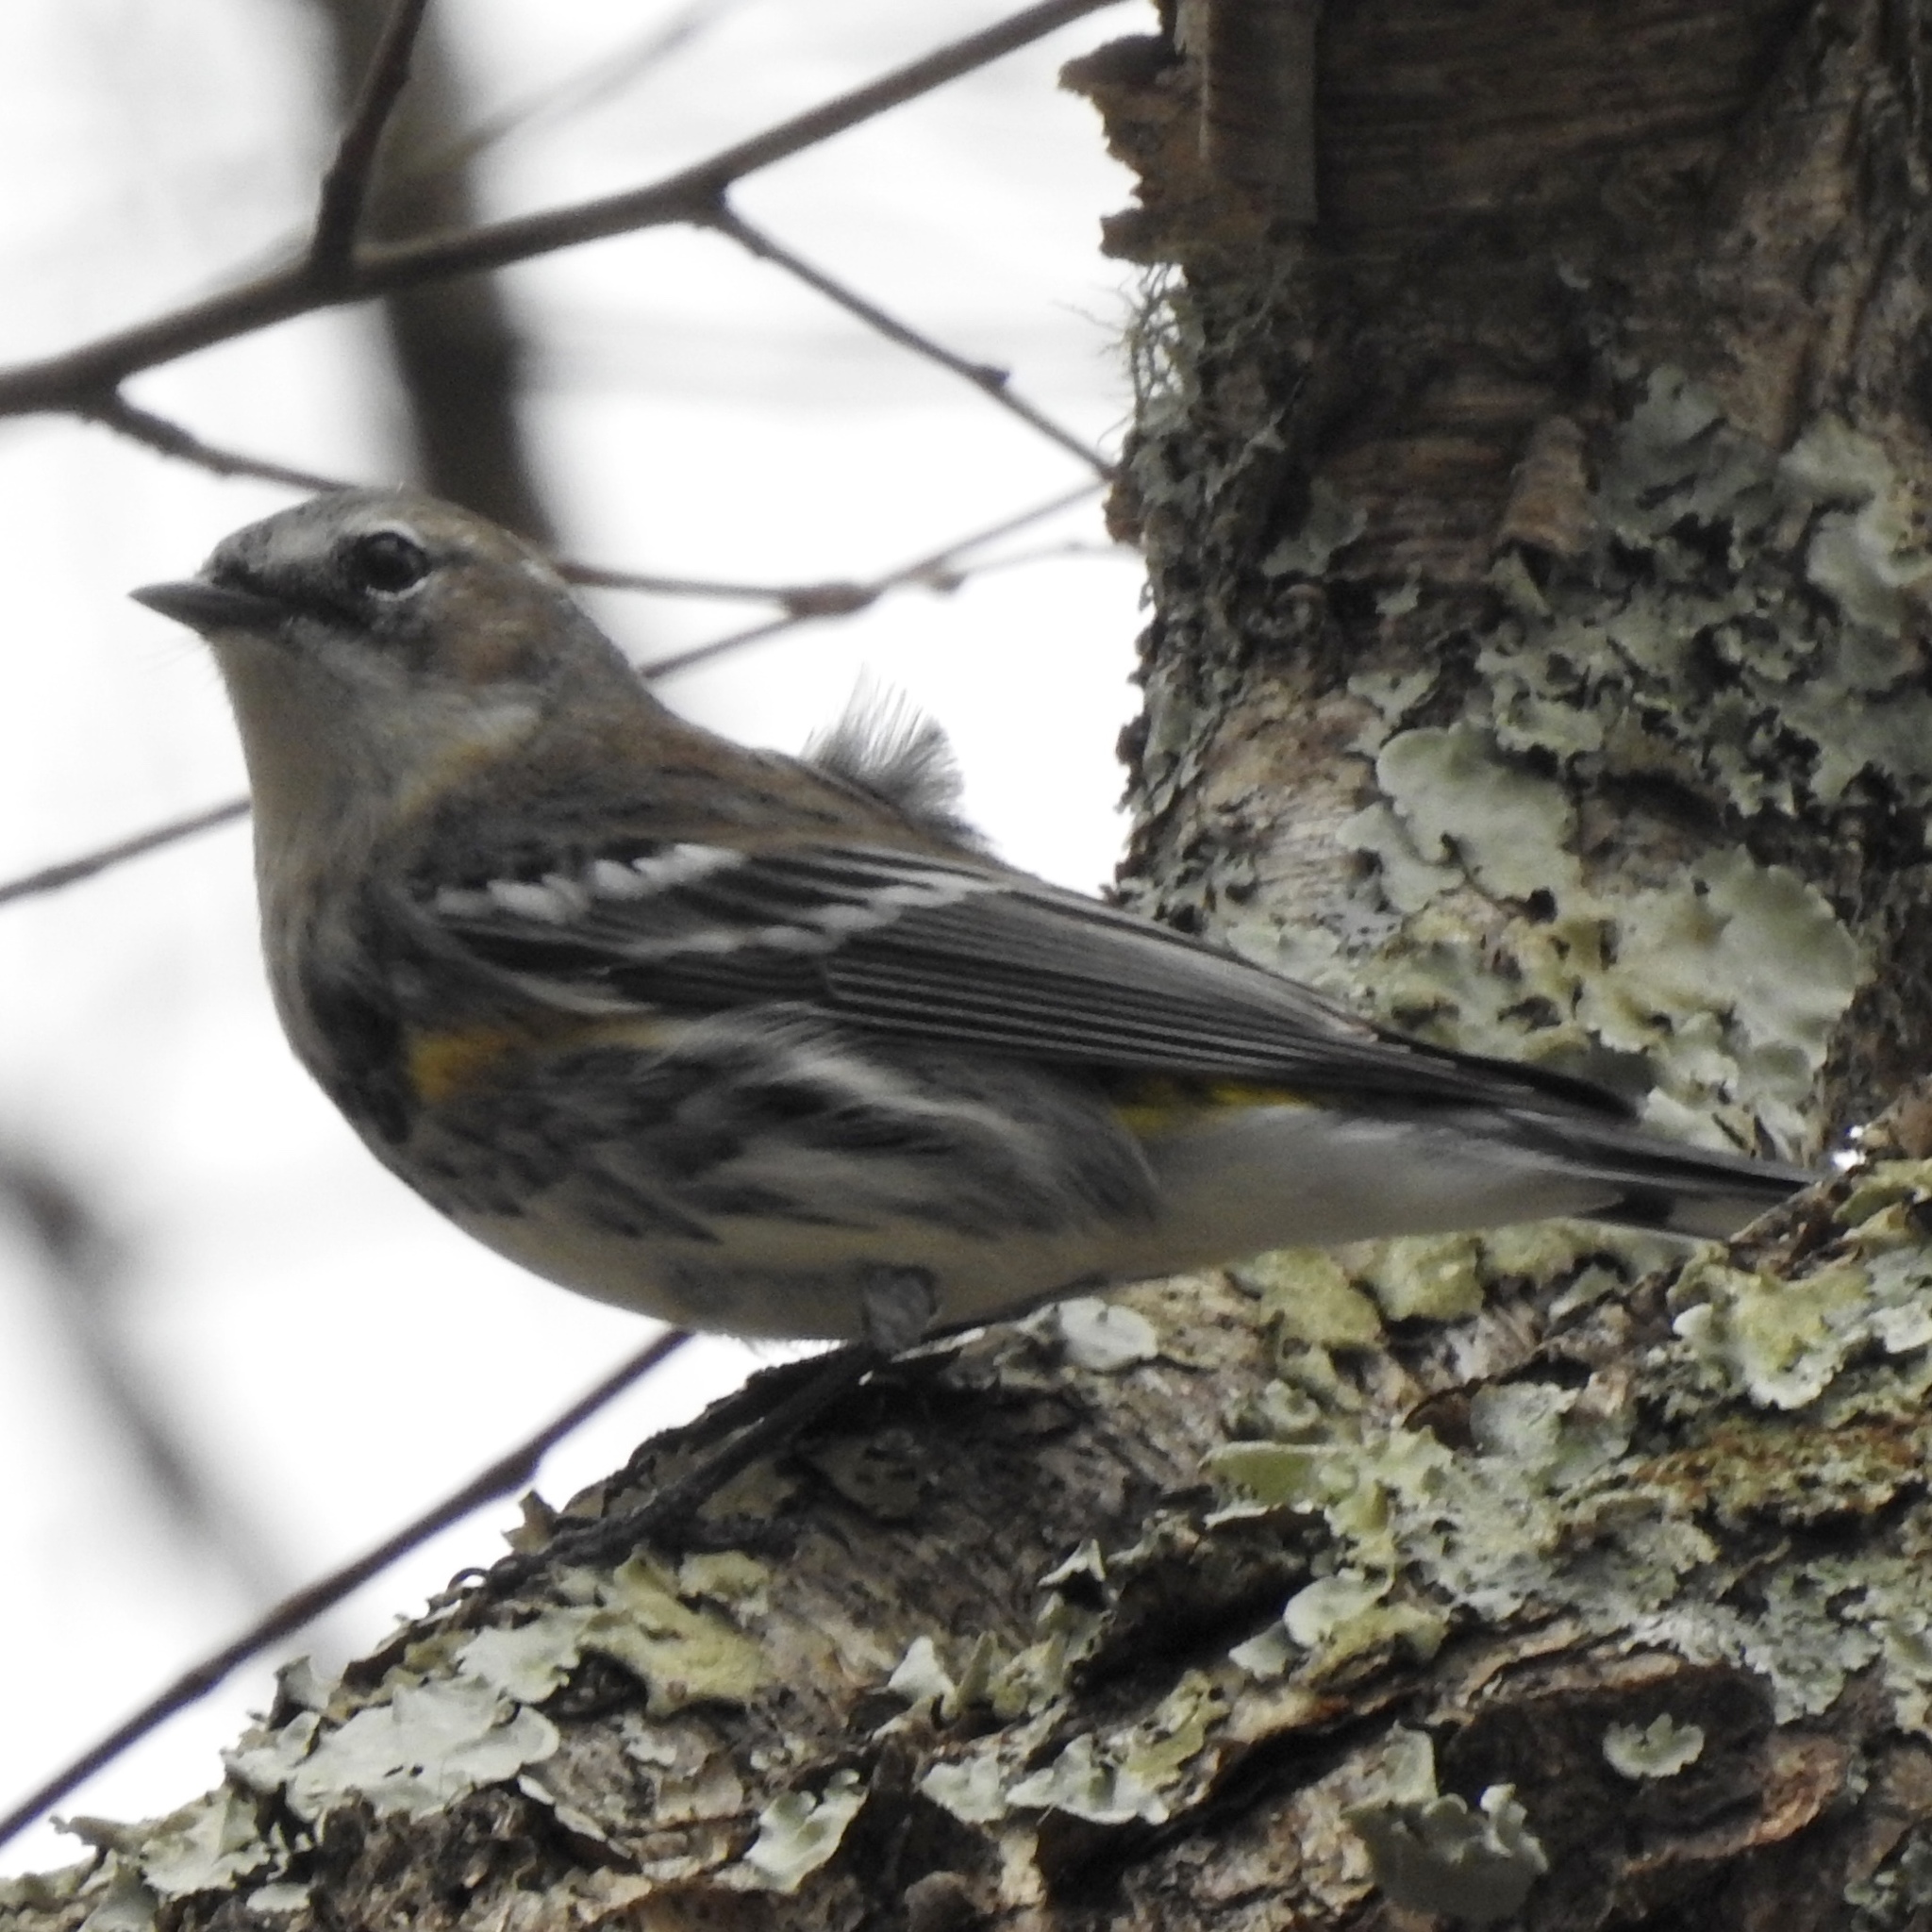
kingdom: Animalia
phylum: Chordata
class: Aves
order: Passeriformes
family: Parulidae
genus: Setophaga
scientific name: Setophaga coronata
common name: Myrtle warbler
